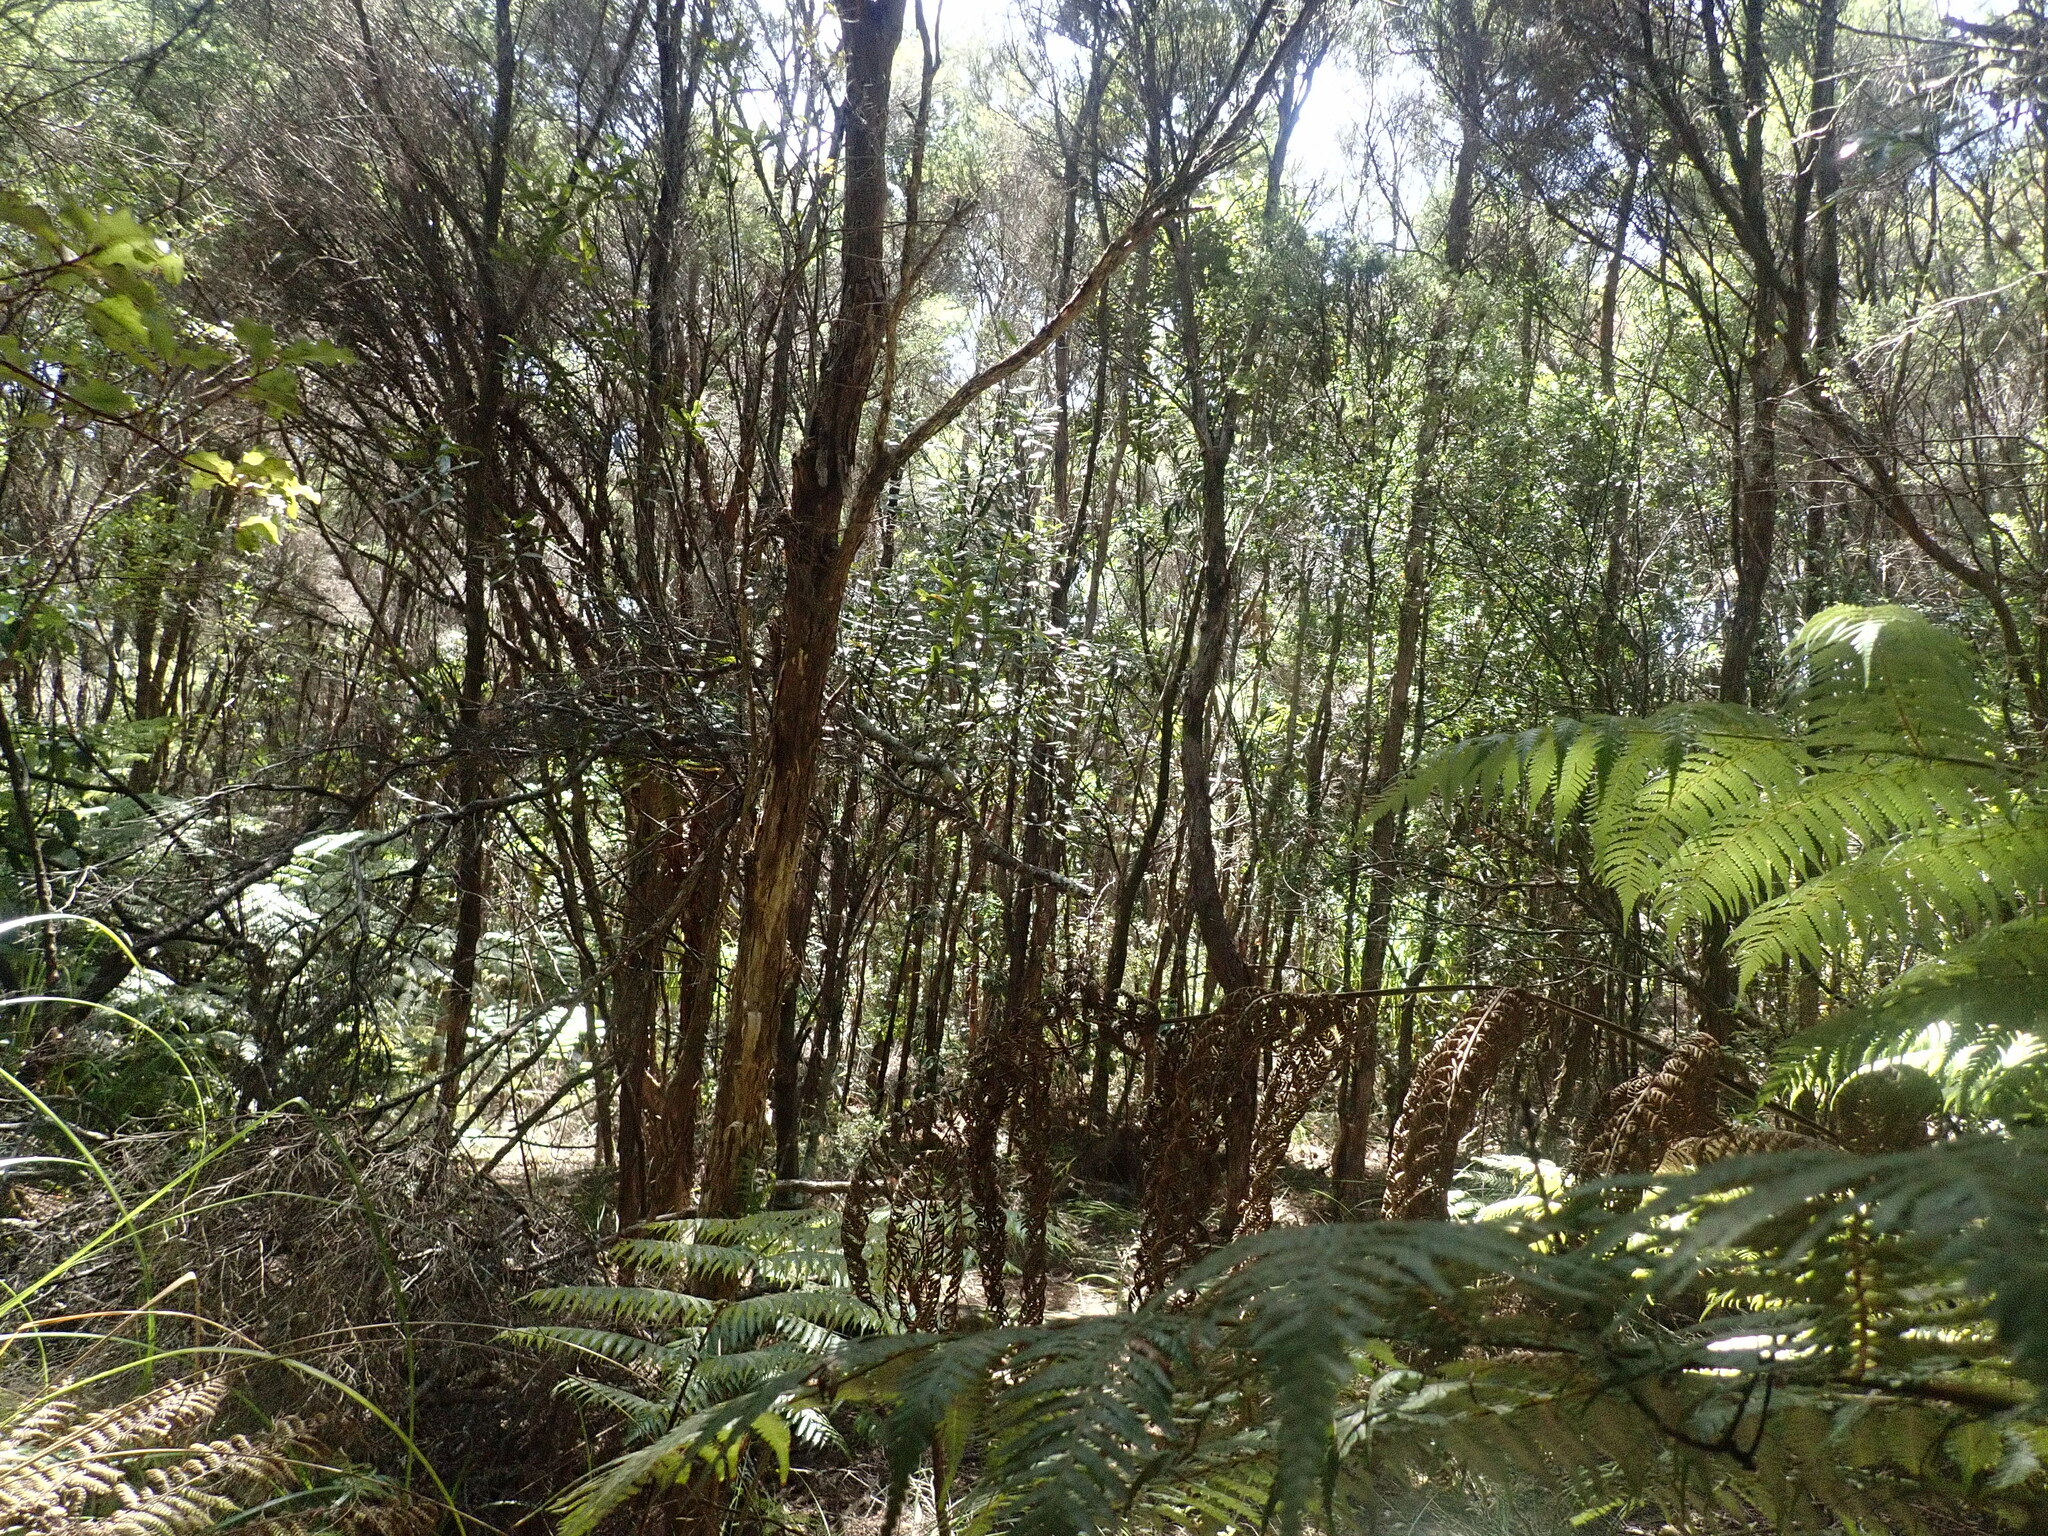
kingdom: Plantae
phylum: Tracheophyta
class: Magnoliopsida
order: Proteales
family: Proteaceae
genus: Hakea
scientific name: Hakea sericea
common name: Needle bush
